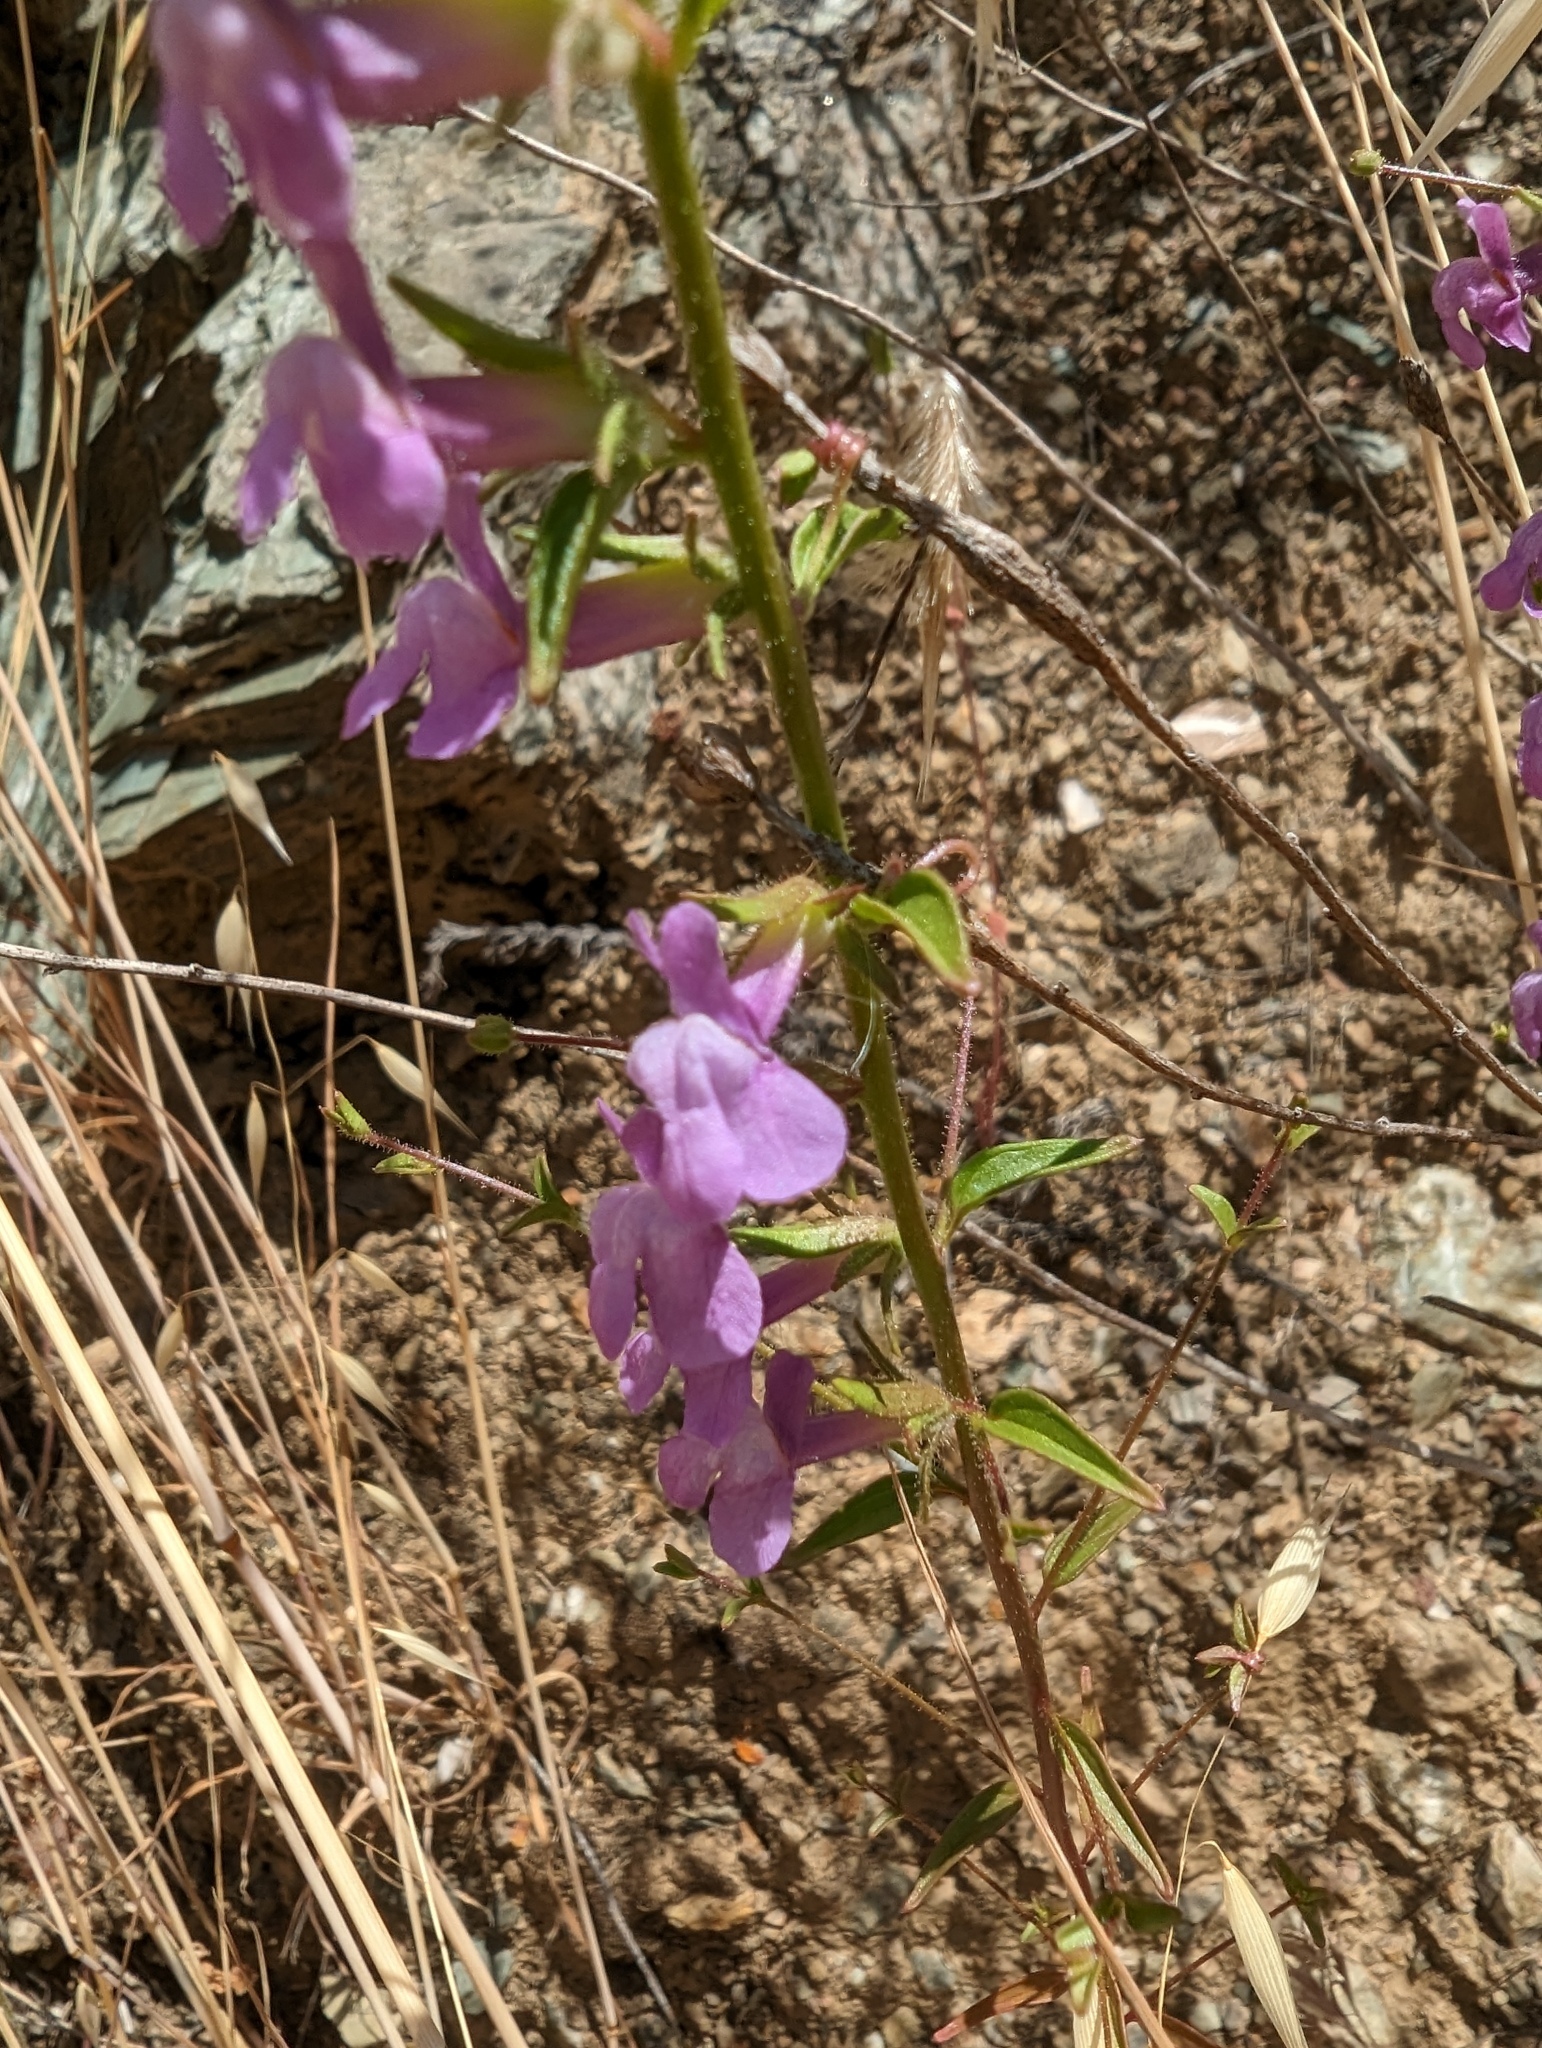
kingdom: Plantae
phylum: Tracheophyta
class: Magnoliopsida
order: Lamiales
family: Plantaginaceae
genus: Sairocarpus
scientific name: Sairocarpus vexillocalyculatus
